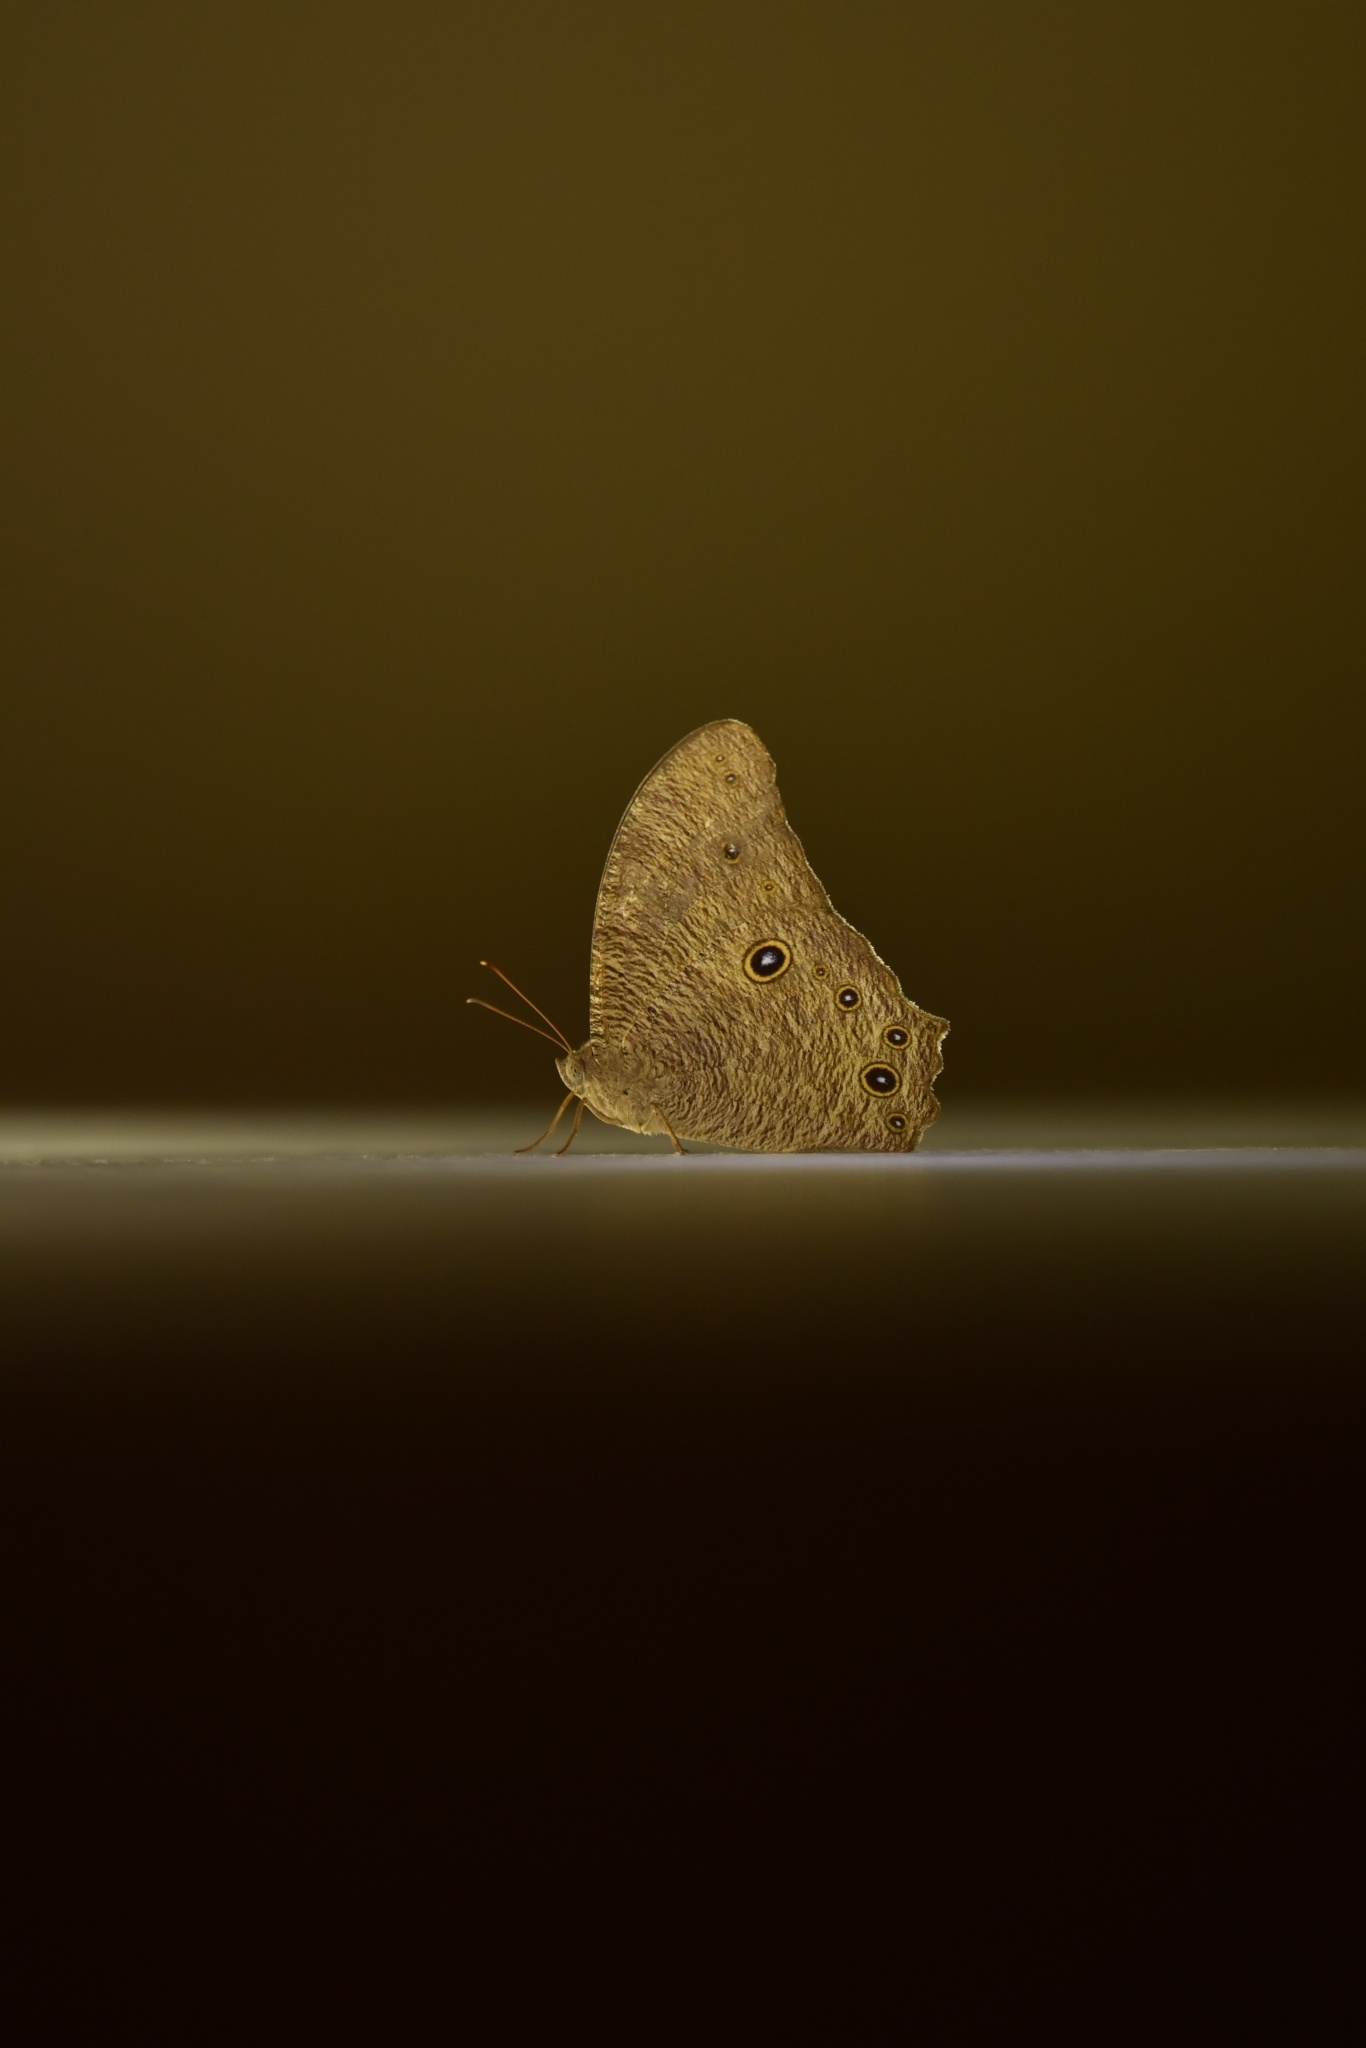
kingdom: Animalia
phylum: Arthropoda
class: Insecta
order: Lepidoptera
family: Nymphalidae
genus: Melanitis
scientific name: Melanitis leda
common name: Twilight brown
